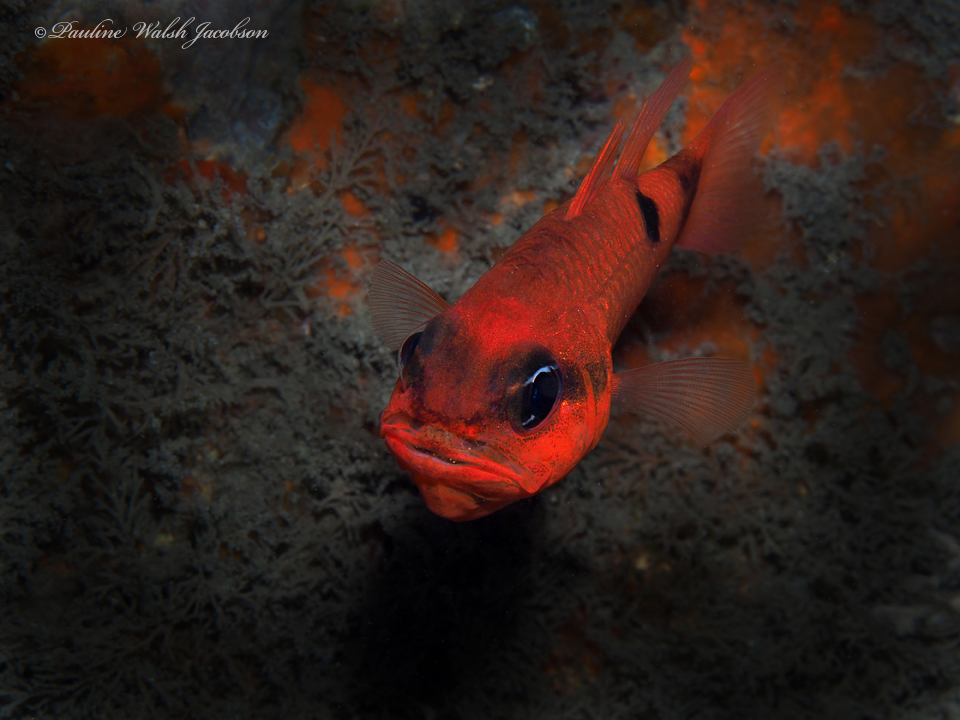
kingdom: Animalia
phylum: Chordata
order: Perciformes
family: Apogonidae
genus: Apogon
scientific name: Apogon maculatus
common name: Flamefish
